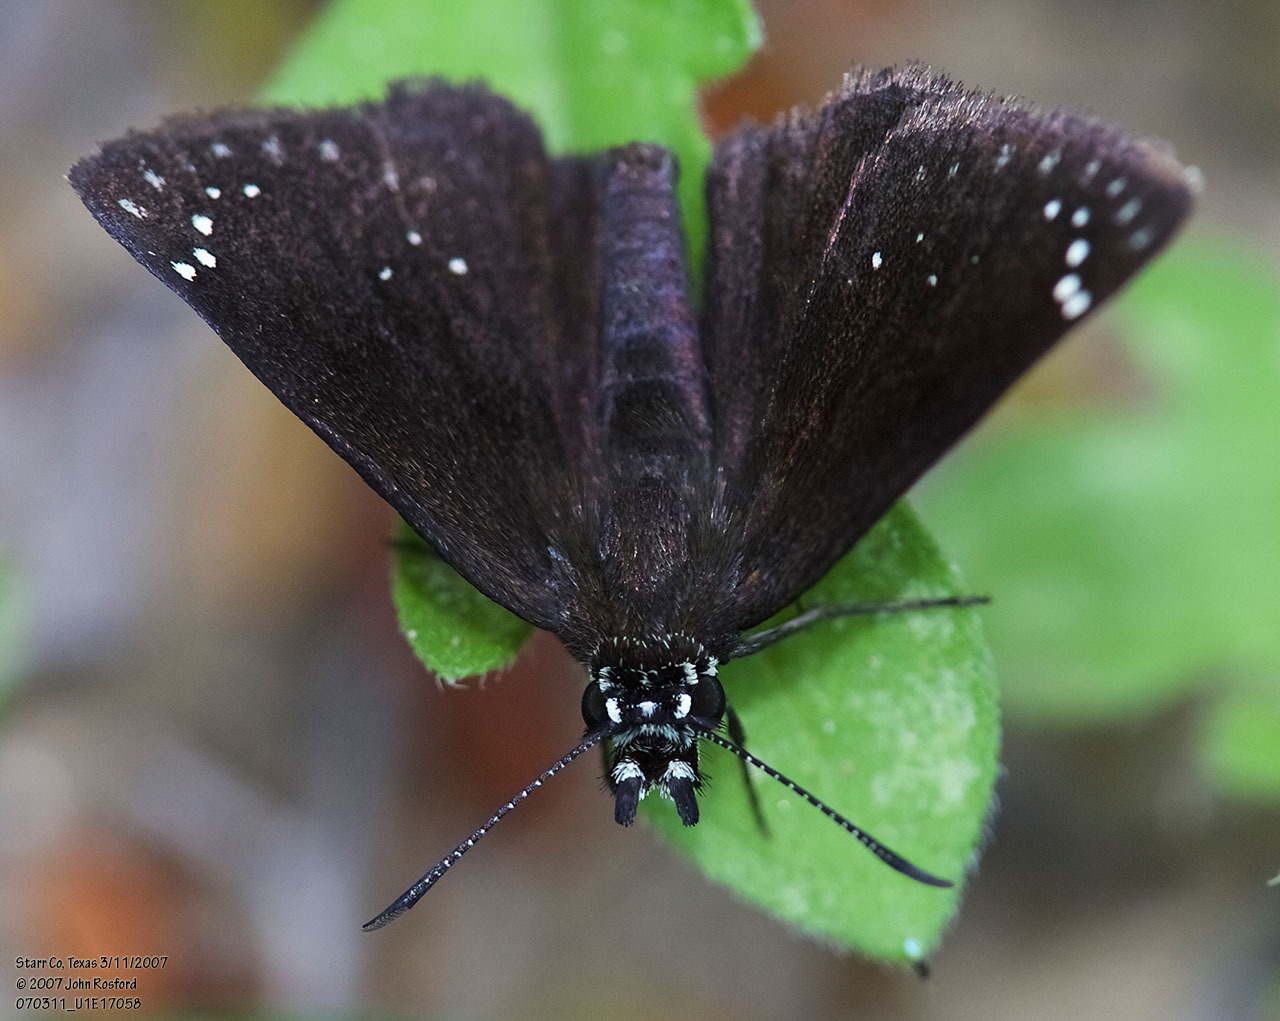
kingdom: Animalia
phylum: Arthropoda
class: Insecta
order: Lepidoptera
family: Hesperiidae
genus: Pholisora
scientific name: Pholisora catullus
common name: Common sootywing
